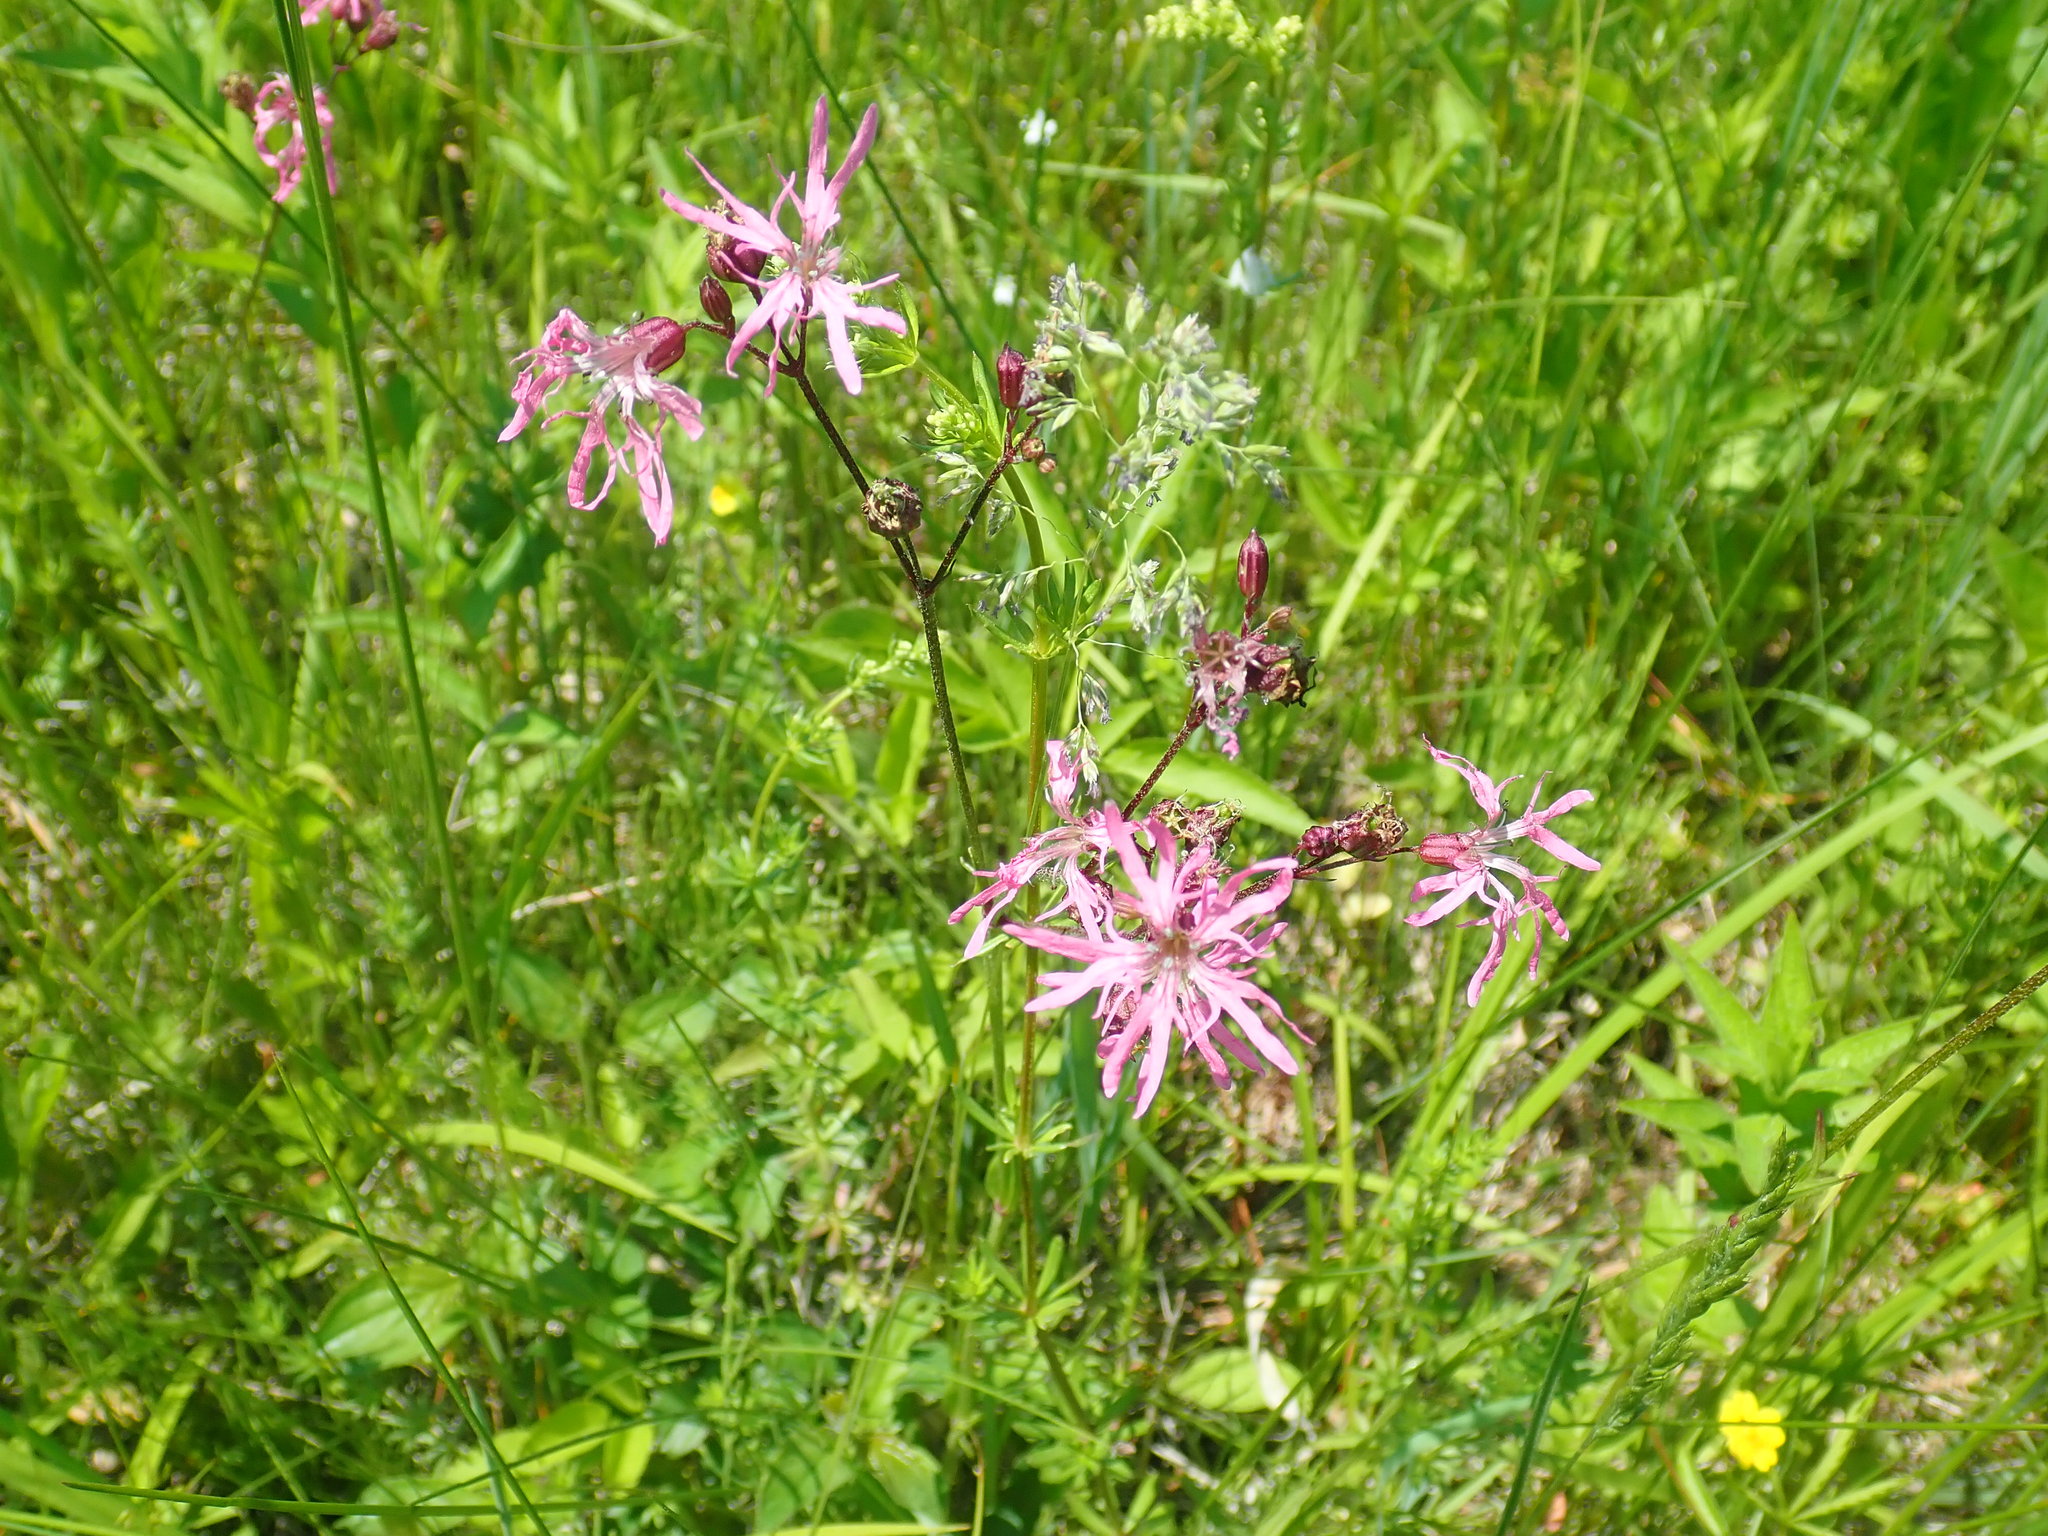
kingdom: Plantae
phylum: Tracheophyta
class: Magnoliopsida
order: Caryophyllales
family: Caryophyllaceae
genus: Silene
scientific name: Silene flos-cuculi
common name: Ragged-robin
